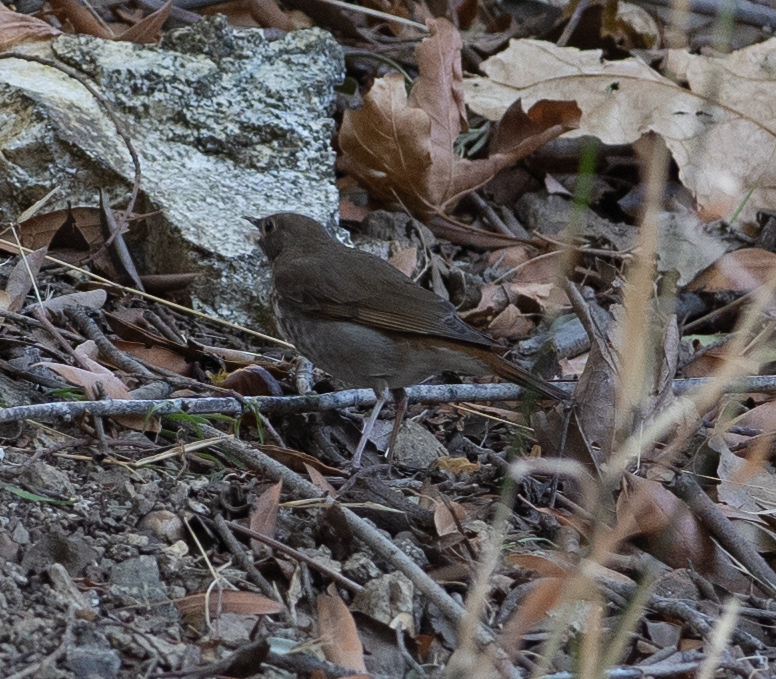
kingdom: Animalia
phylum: Chordata
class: Aves
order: Passeriformes
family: Turdidae
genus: Catharus
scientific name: Catharus guttatus
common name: Hermit thrush
